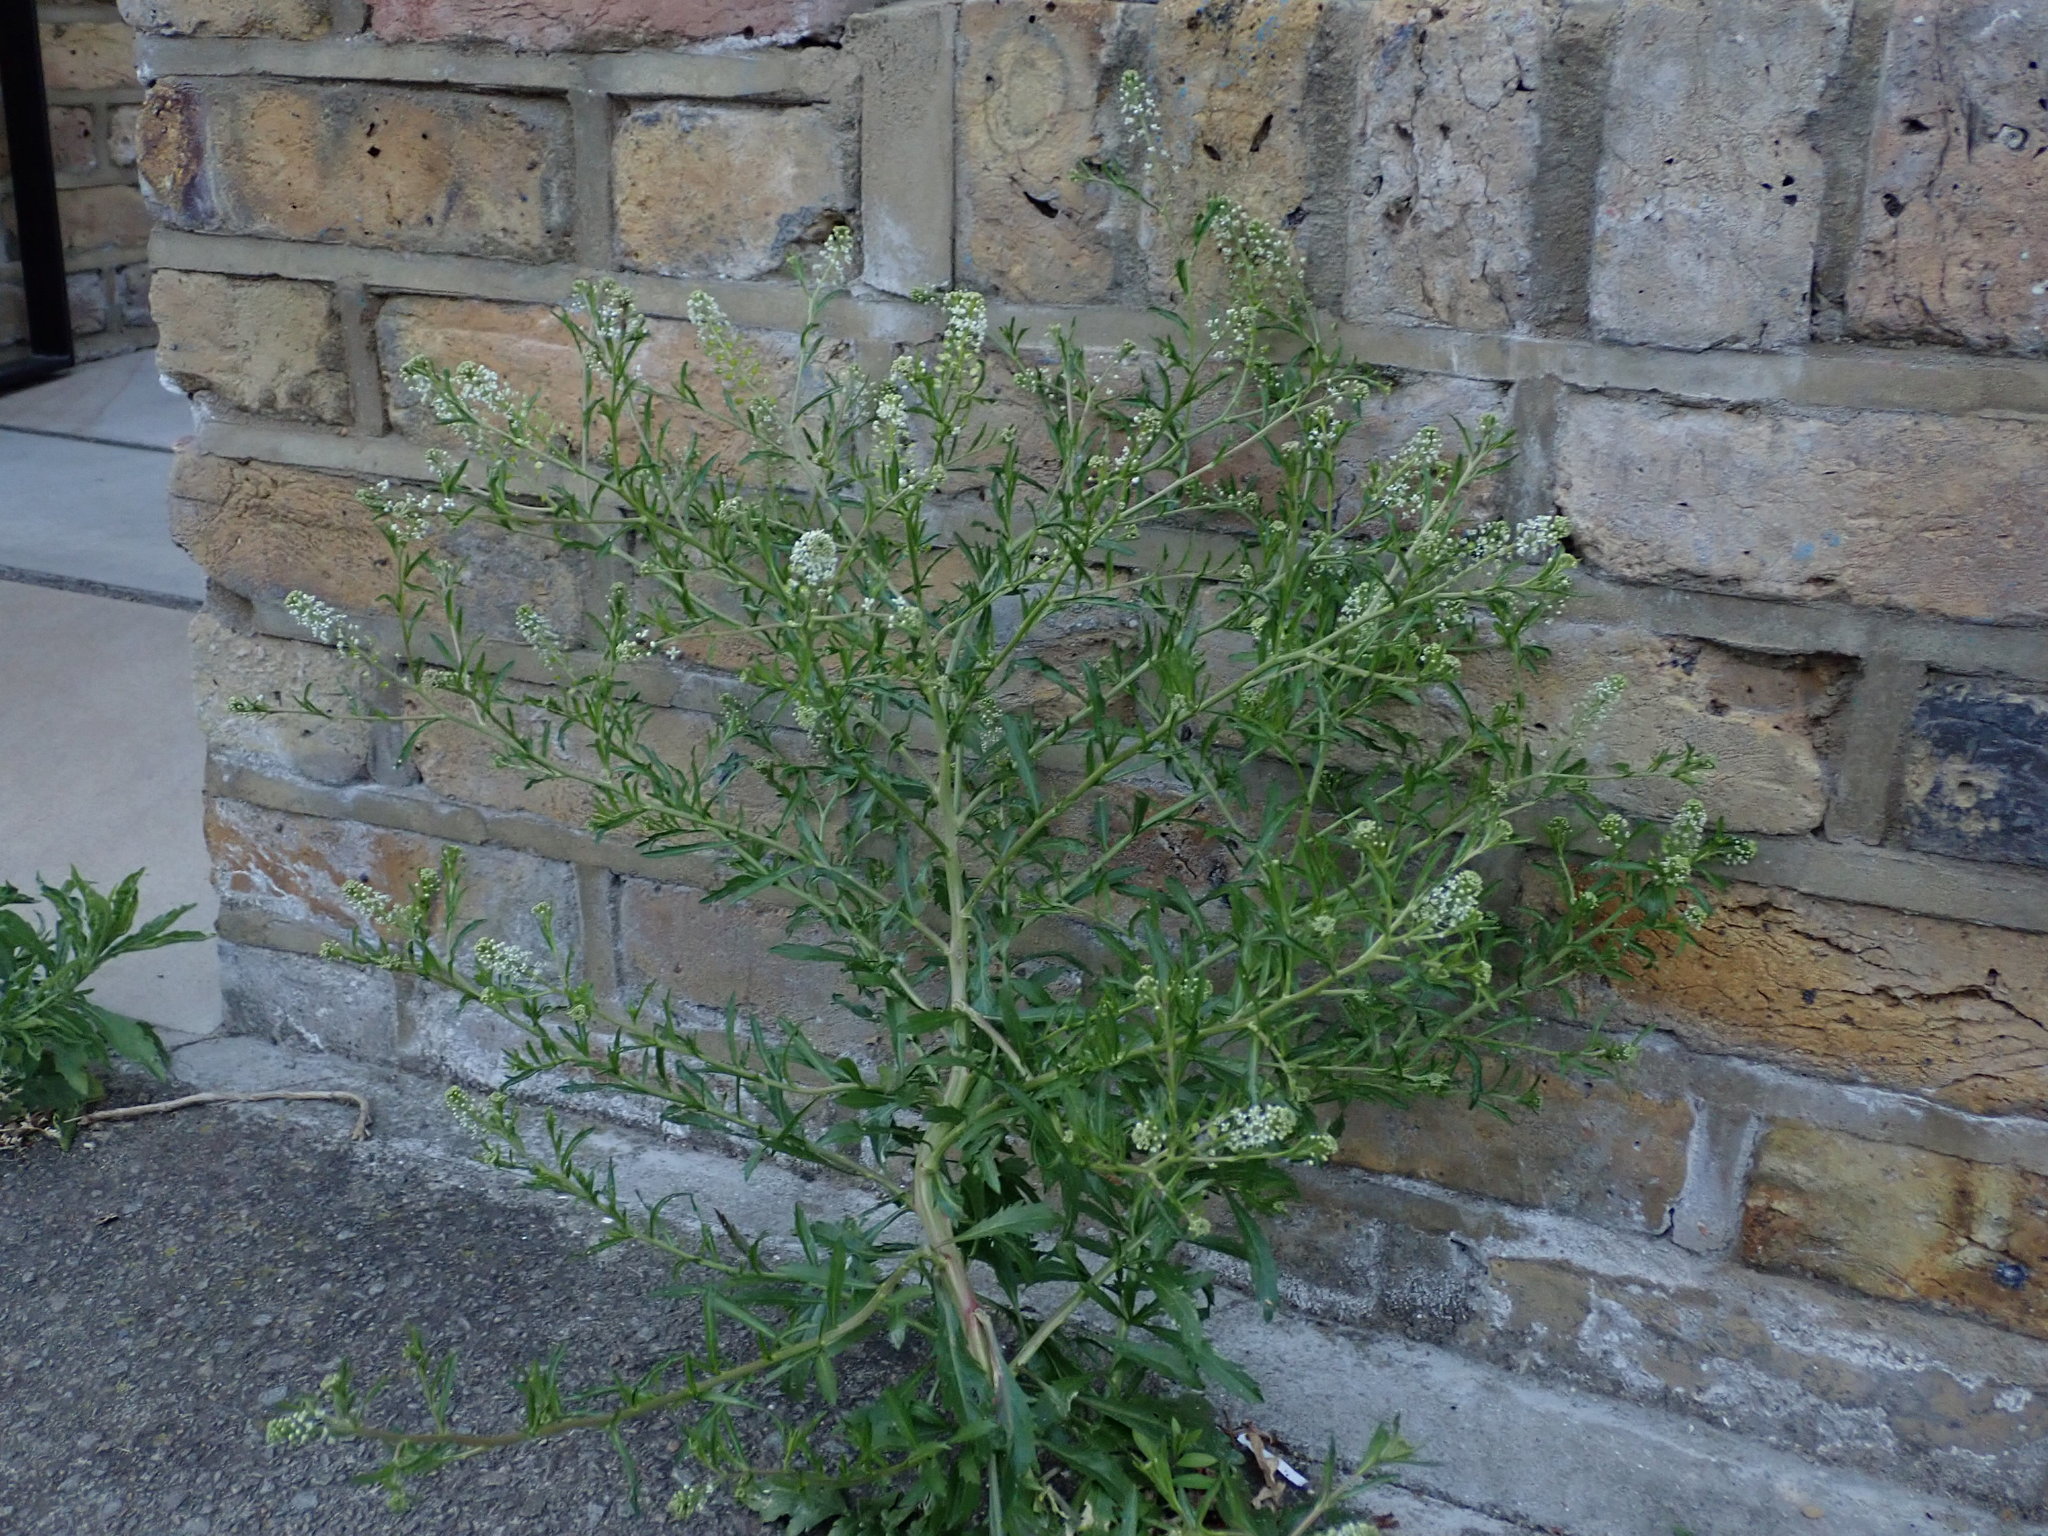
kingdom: Plantae
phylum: Tracheophyta
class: Magnoliopsida
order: Brassicales
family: Brassicaceae
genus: Lepidium
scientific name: Lepidium virginicum
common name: Least pepperwort
